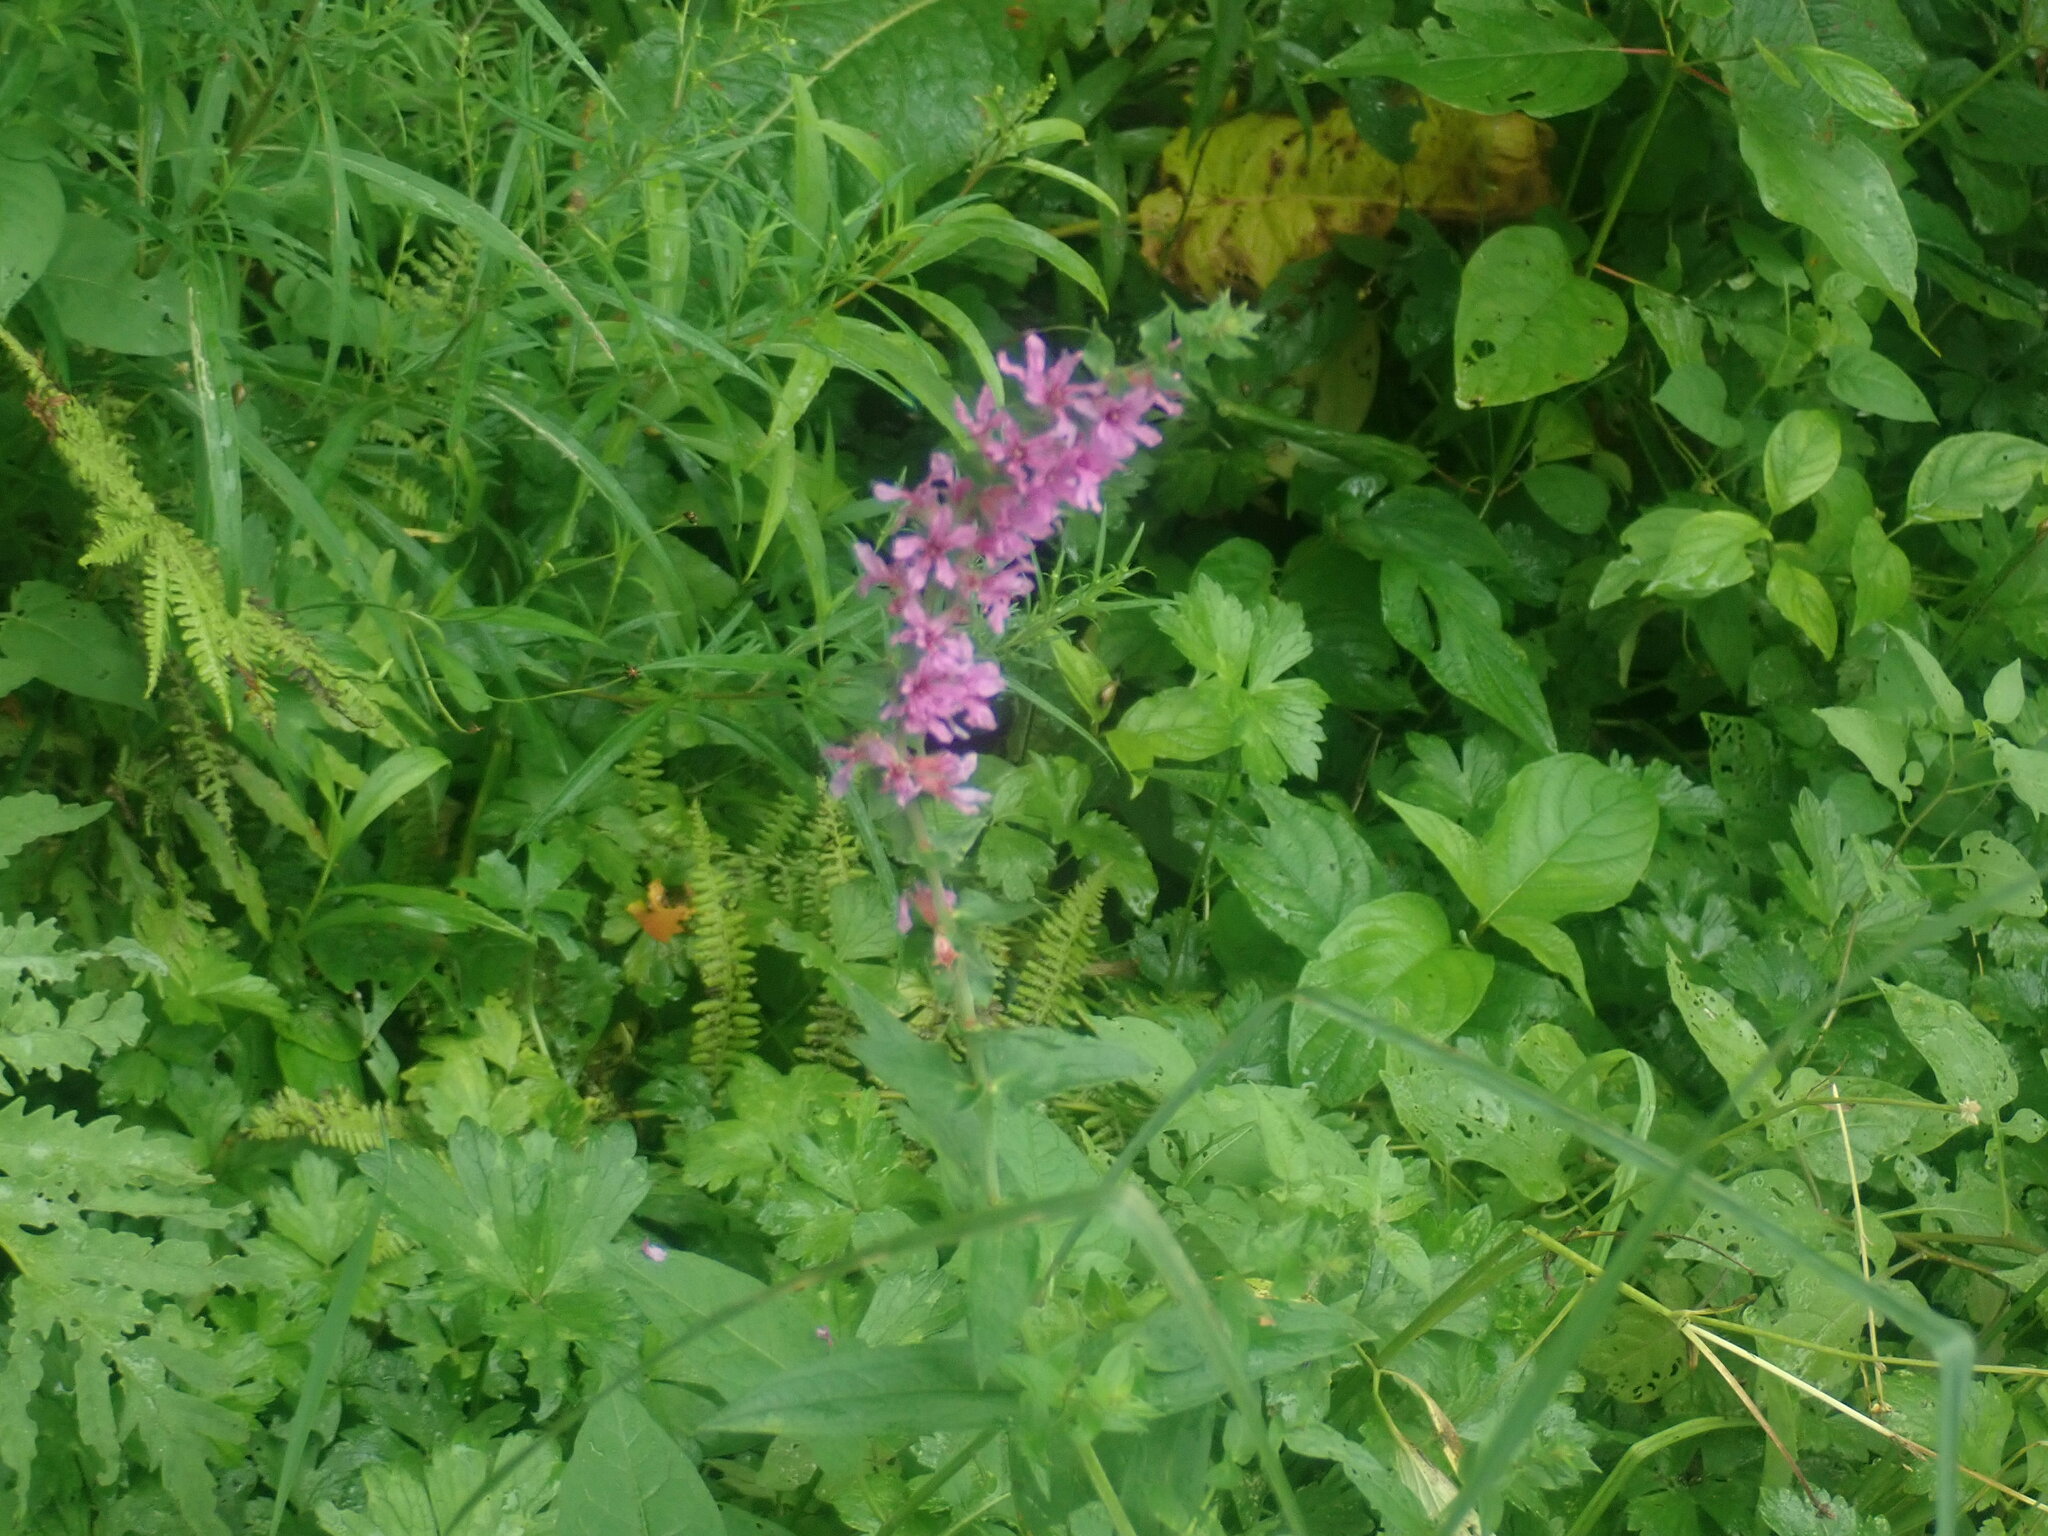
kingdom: Plantae
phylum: Tracheophyta
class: Magnoliopsida
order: Myrtales
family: Lythraceae
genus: Lythrum
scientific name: Lythrum salicaria
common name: Purple loosestrife
